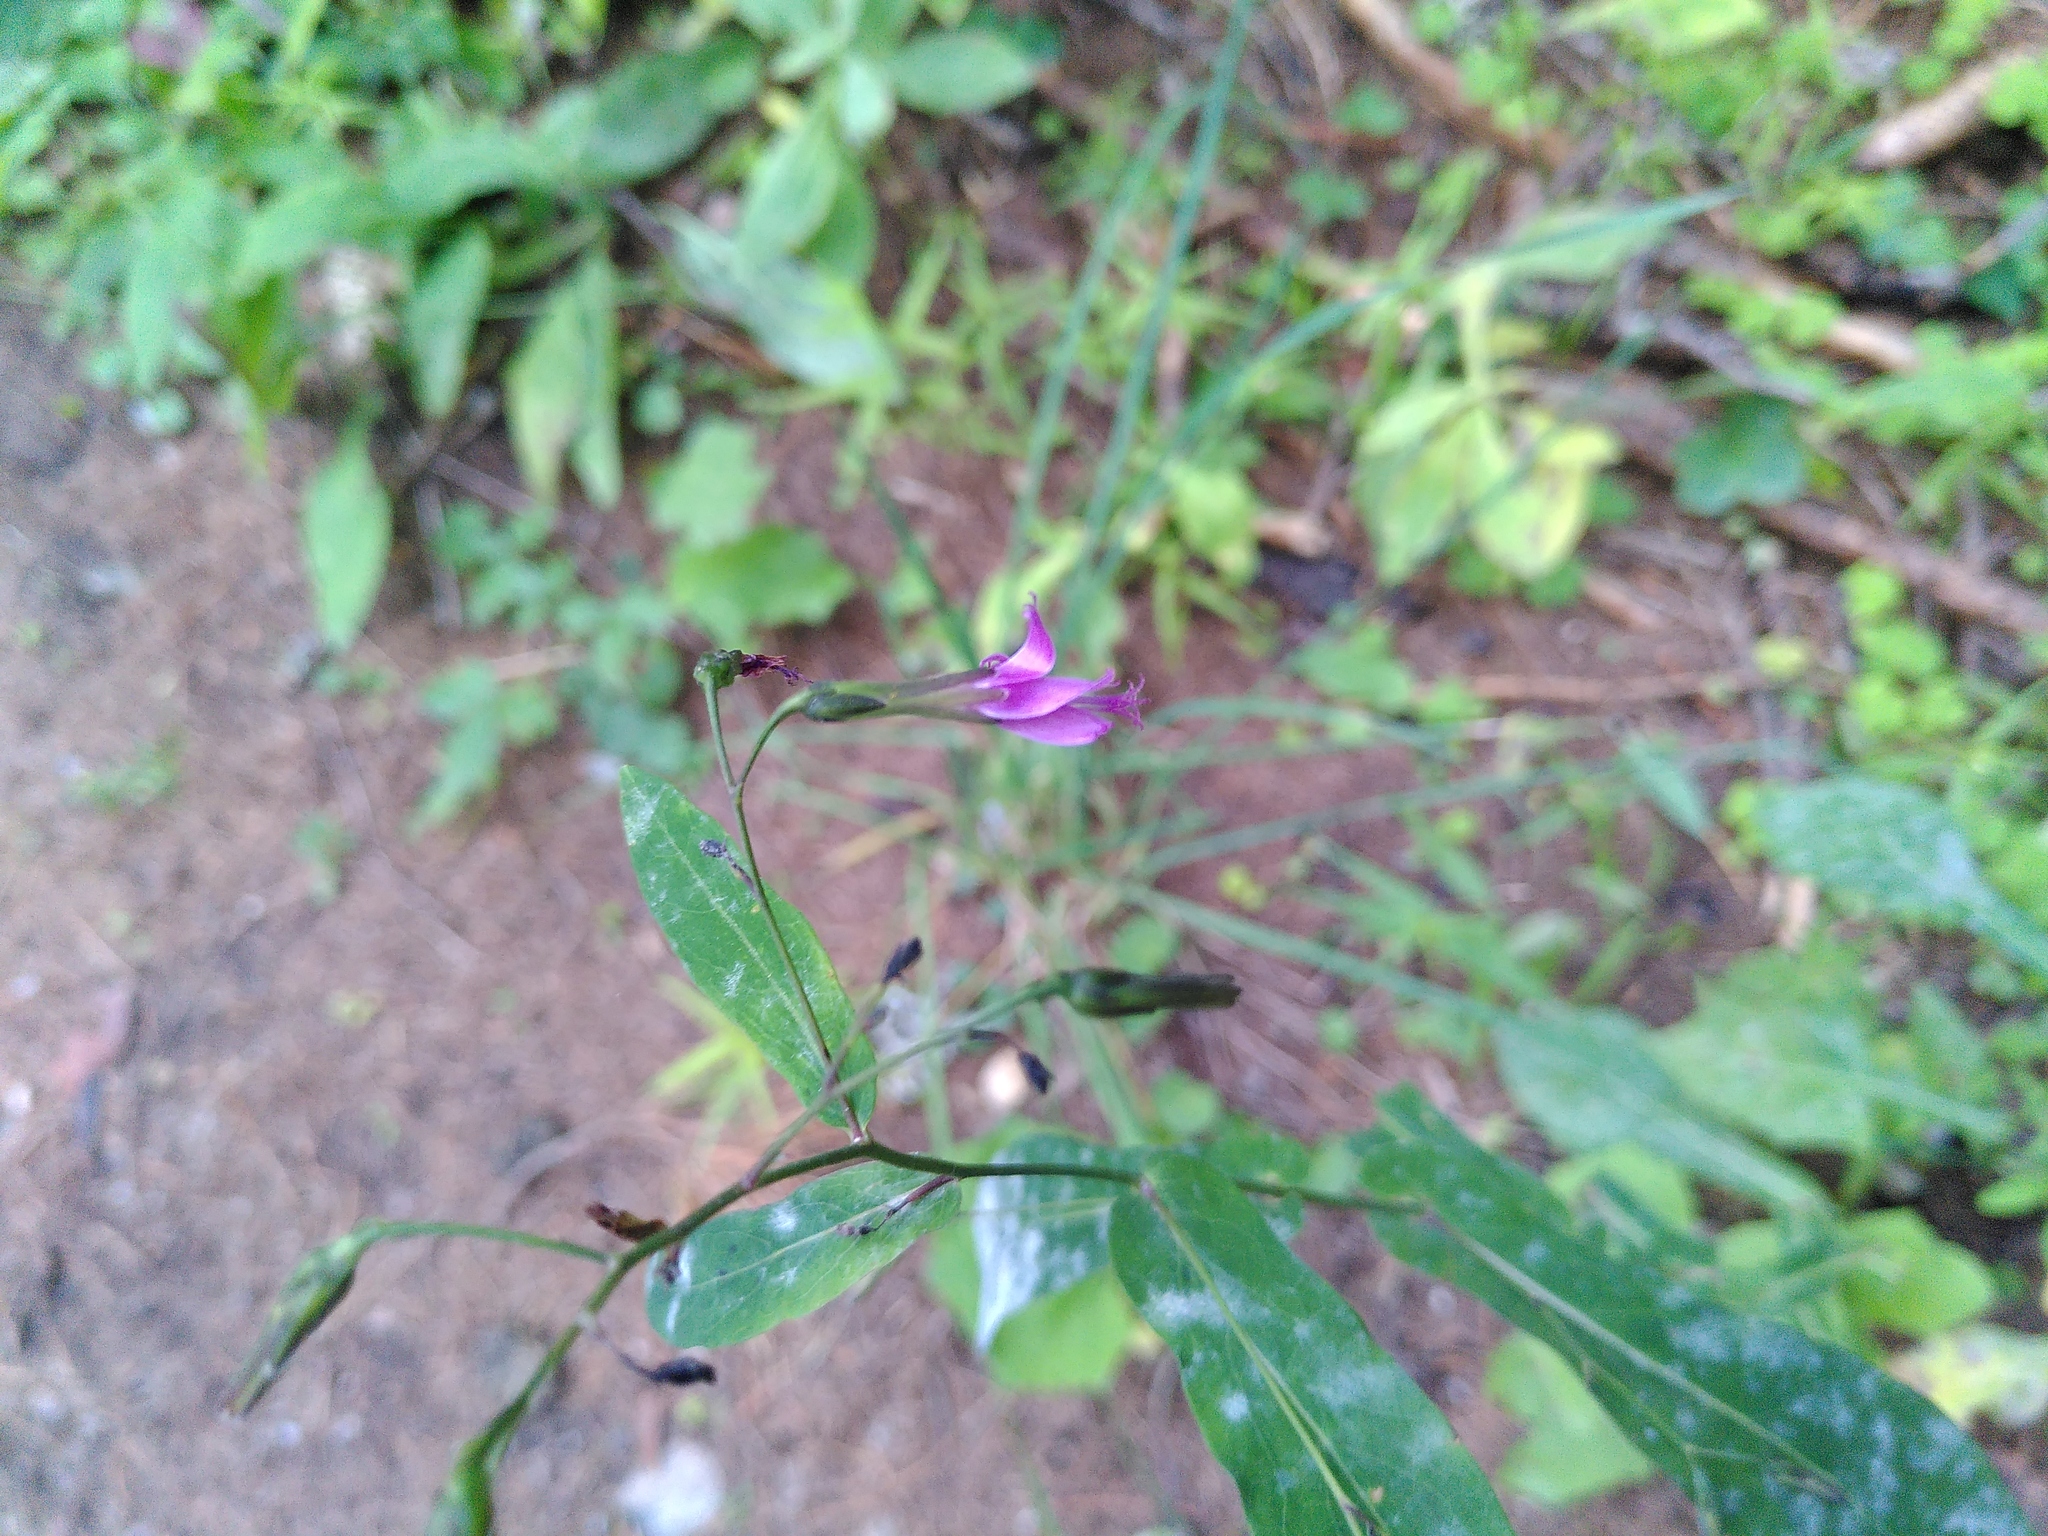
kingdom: Plantae
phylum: Tracheophyta
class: Magnoliopsida
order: Asterales
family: Asteraceae
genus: Prenanthes
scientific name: Prenanthes purpurea
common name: Purple lettuce
